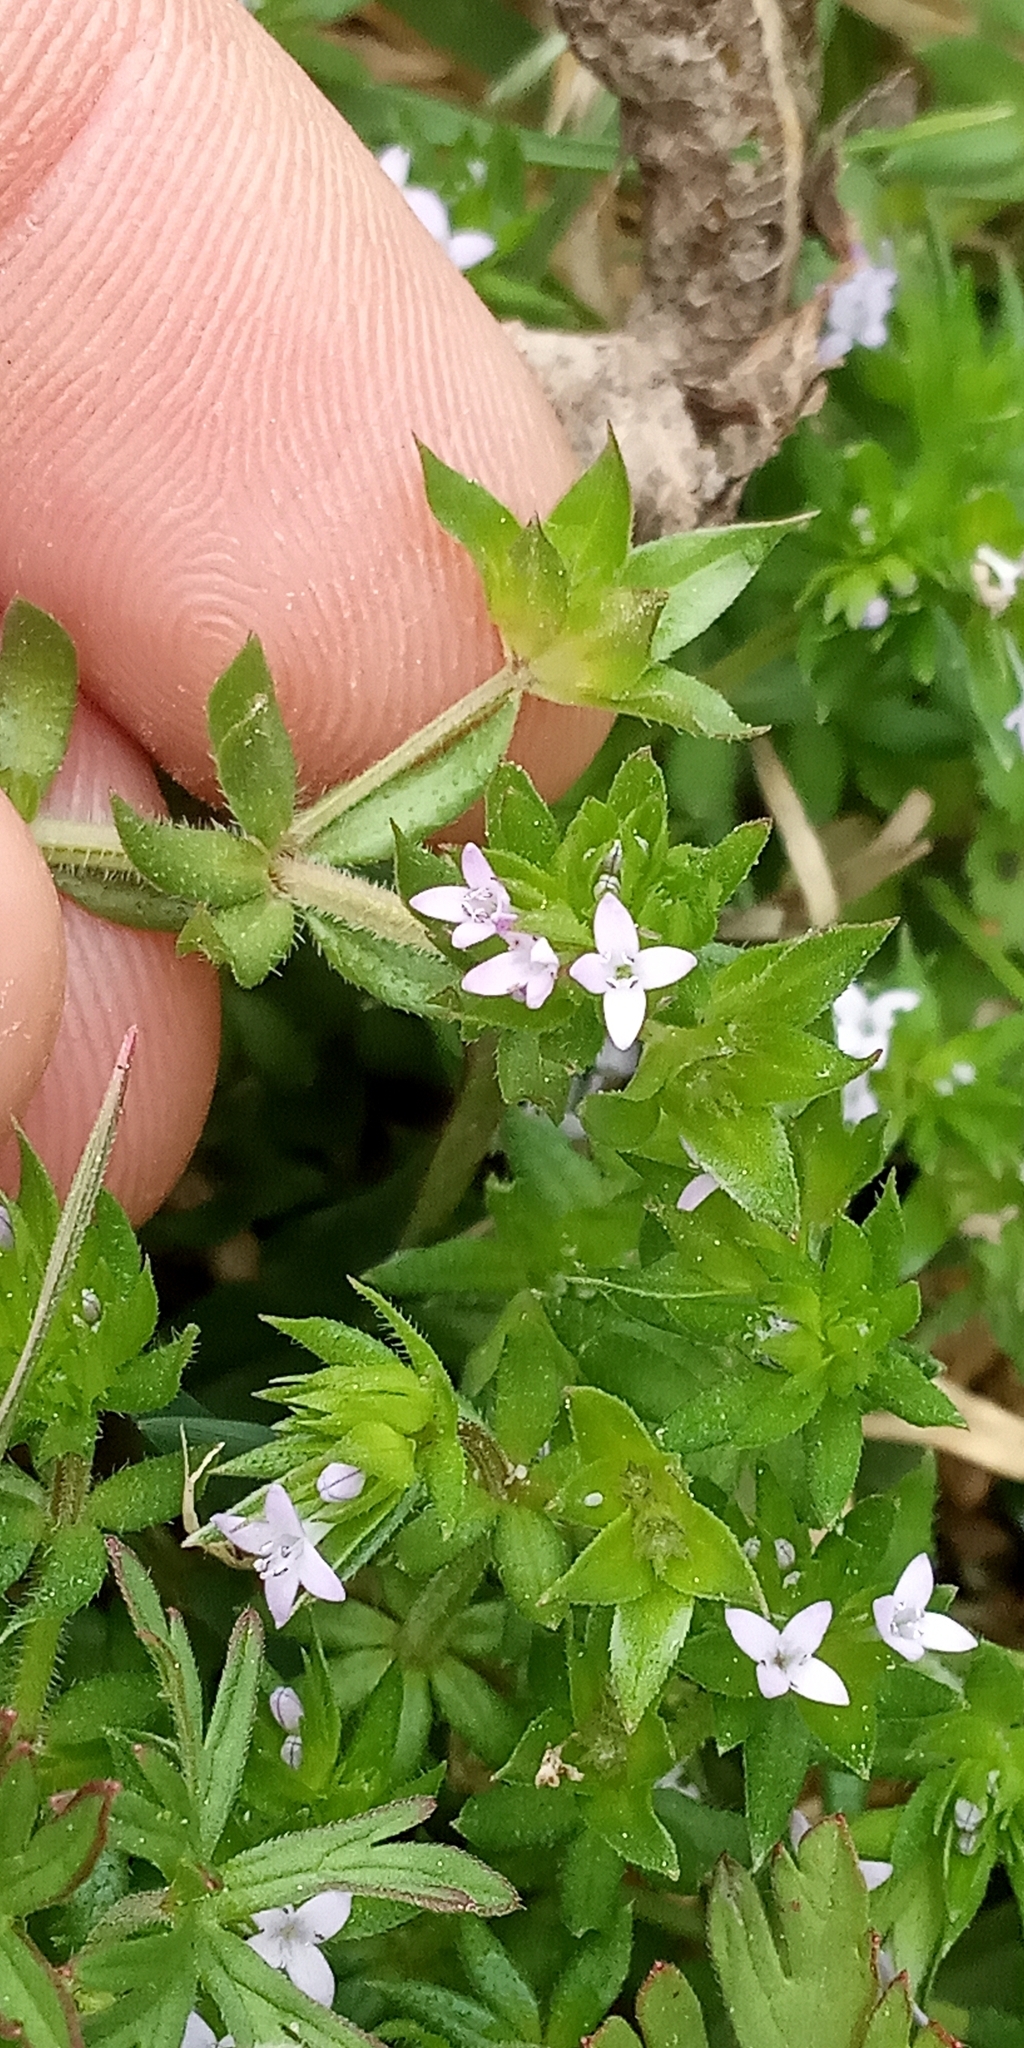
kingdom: Plantae
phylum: Tracheophyta
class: Magnoliopsida
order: Gentianales
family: Rubiaceae
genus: Sherardia
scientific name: Sherardia arvensis
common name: Field madder
